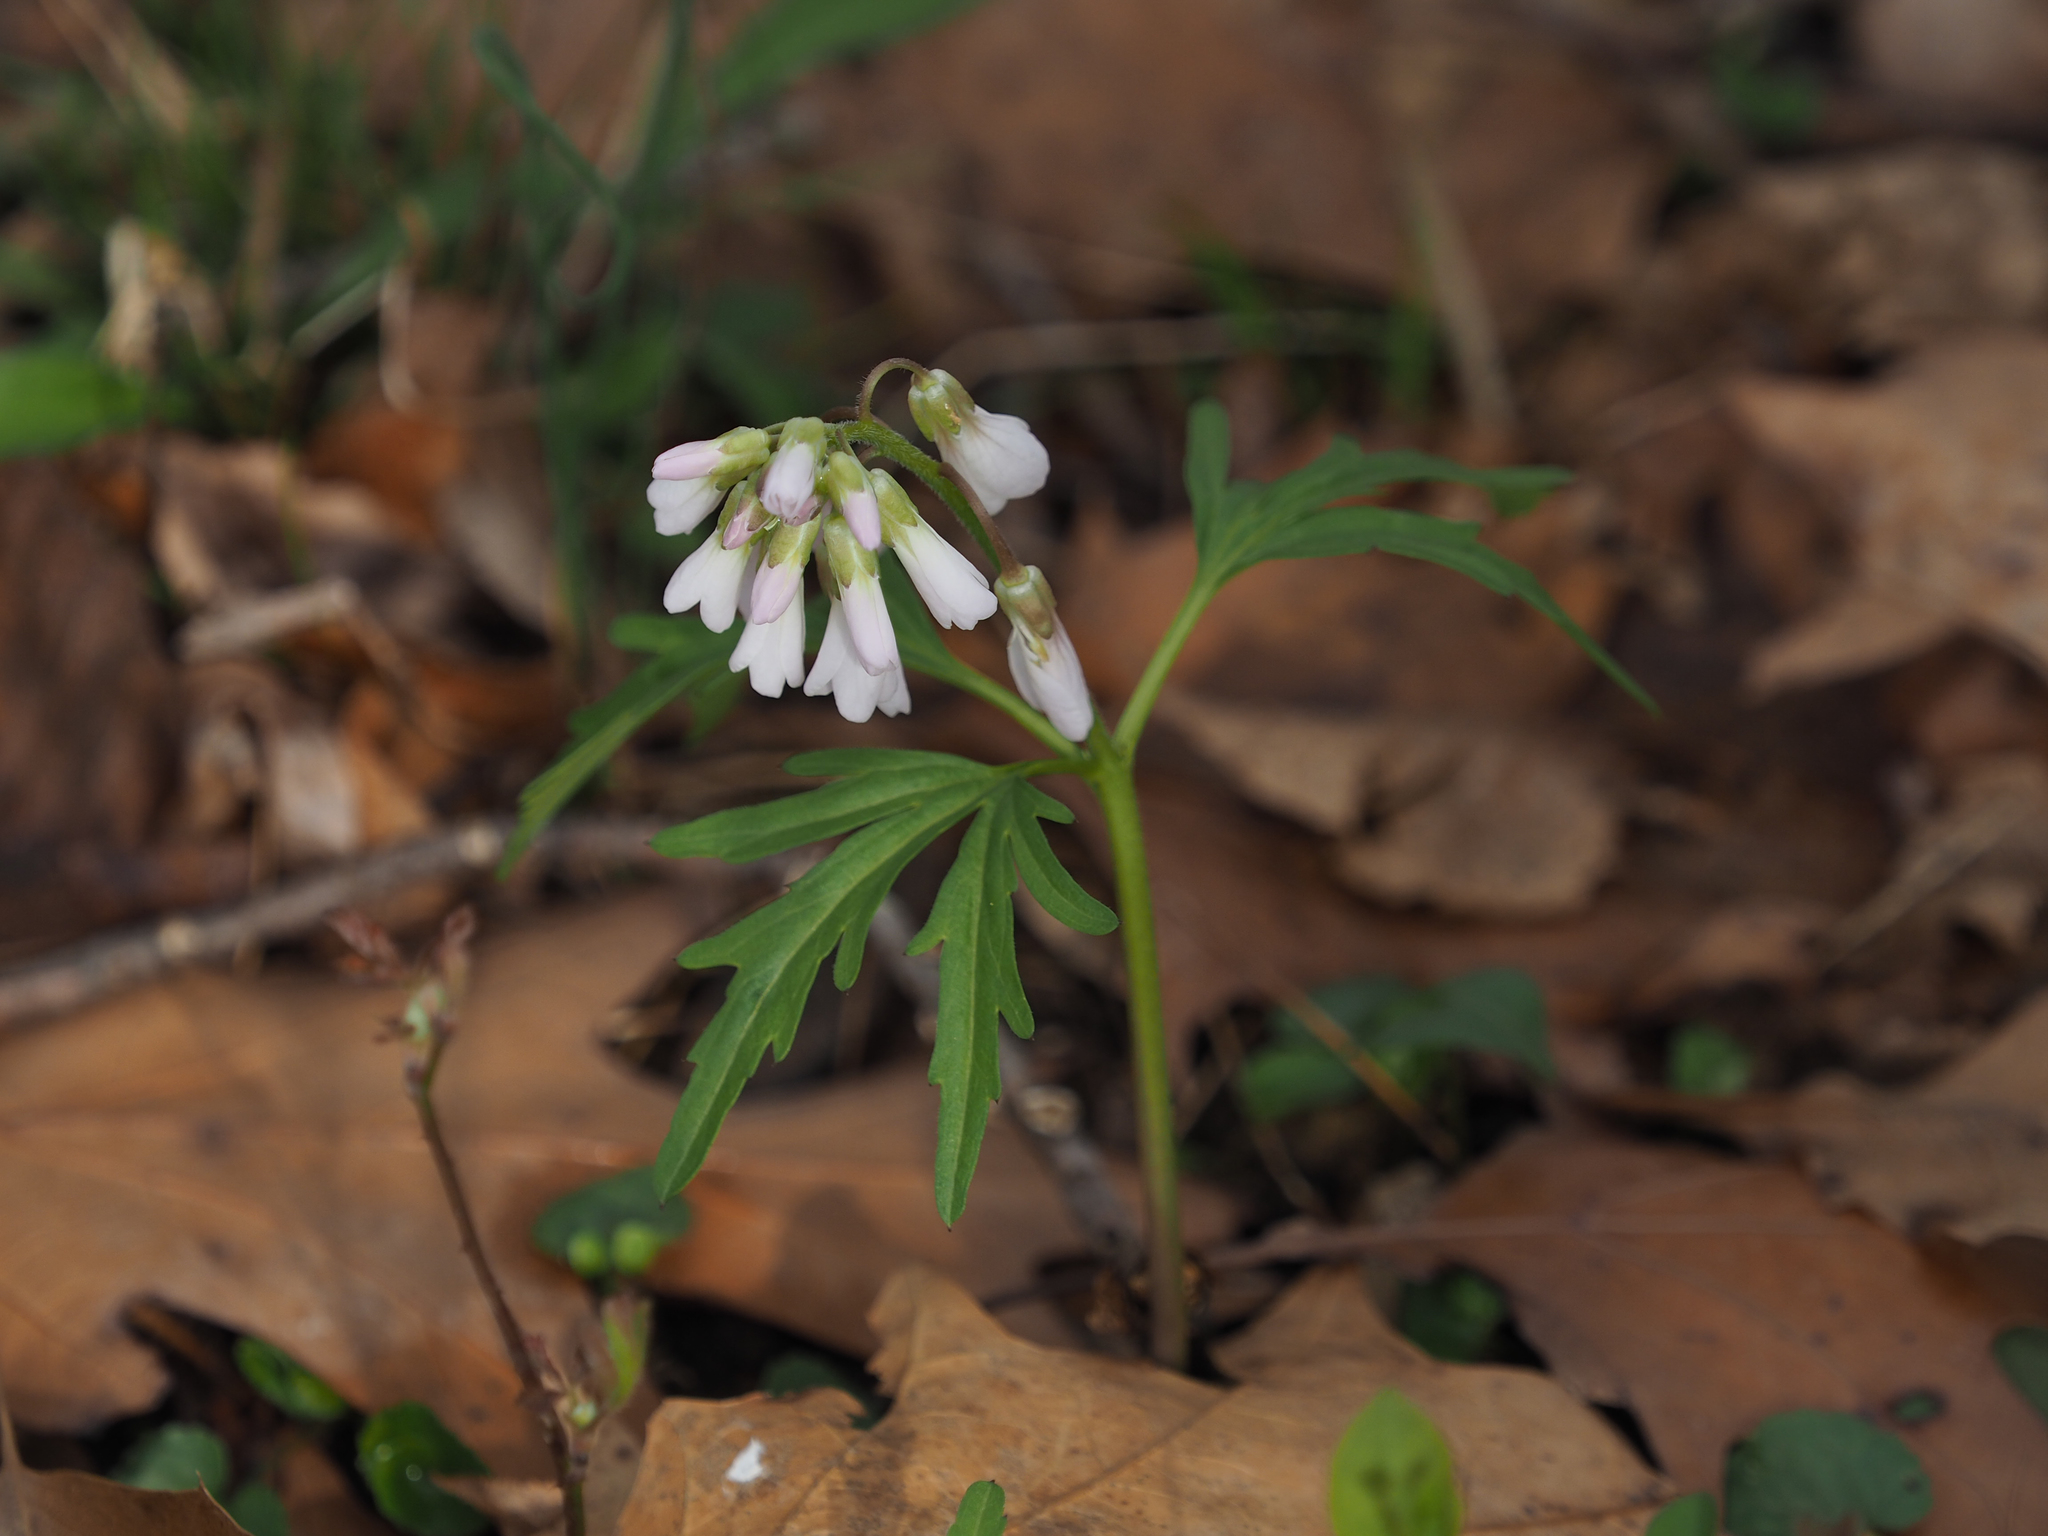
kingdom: Plantae
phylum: Tracheophyta
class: Magnoliopsida
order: Brassicales
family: Brassicaceae
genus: Cardamine
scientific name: Cardamine concatenata
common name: Cut-leaf toothcup
